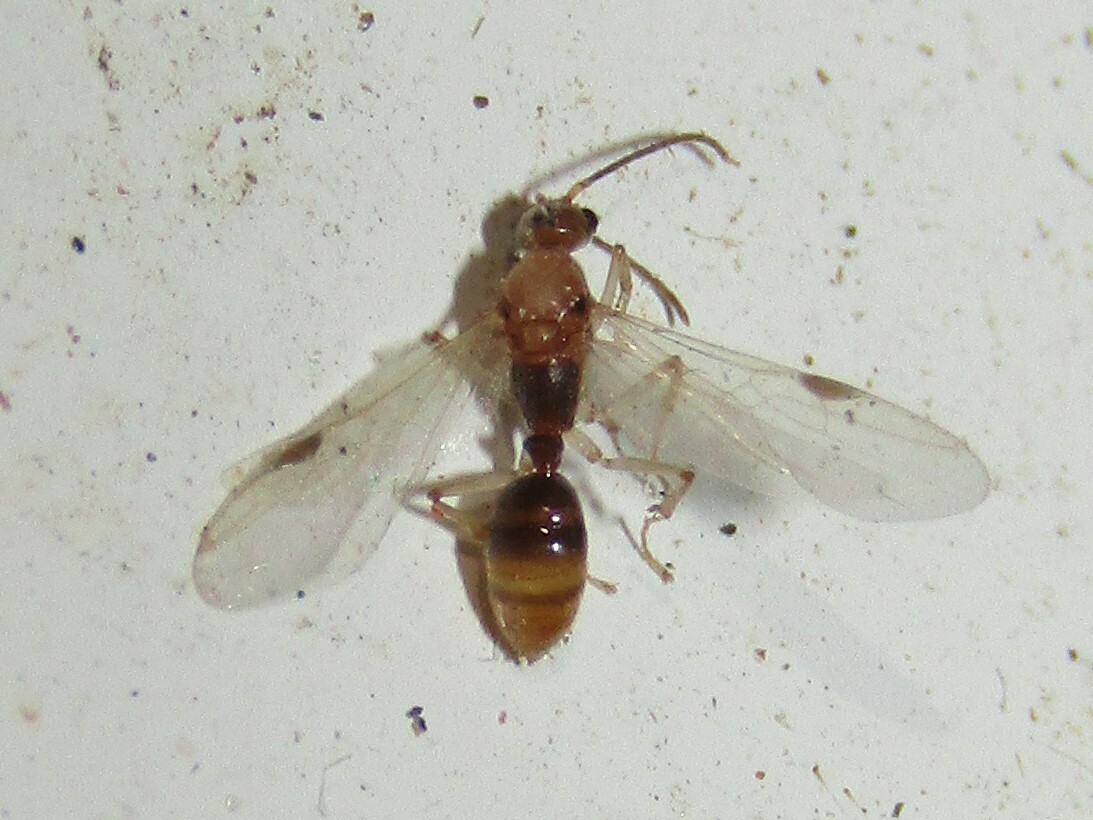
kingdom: Animalia
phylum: Arthropoda
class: Insecta
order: Hymenoptera
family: Formicidae
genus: Pachycondyla
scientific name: Pachycondyla chinensis
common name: Asian needle ant
